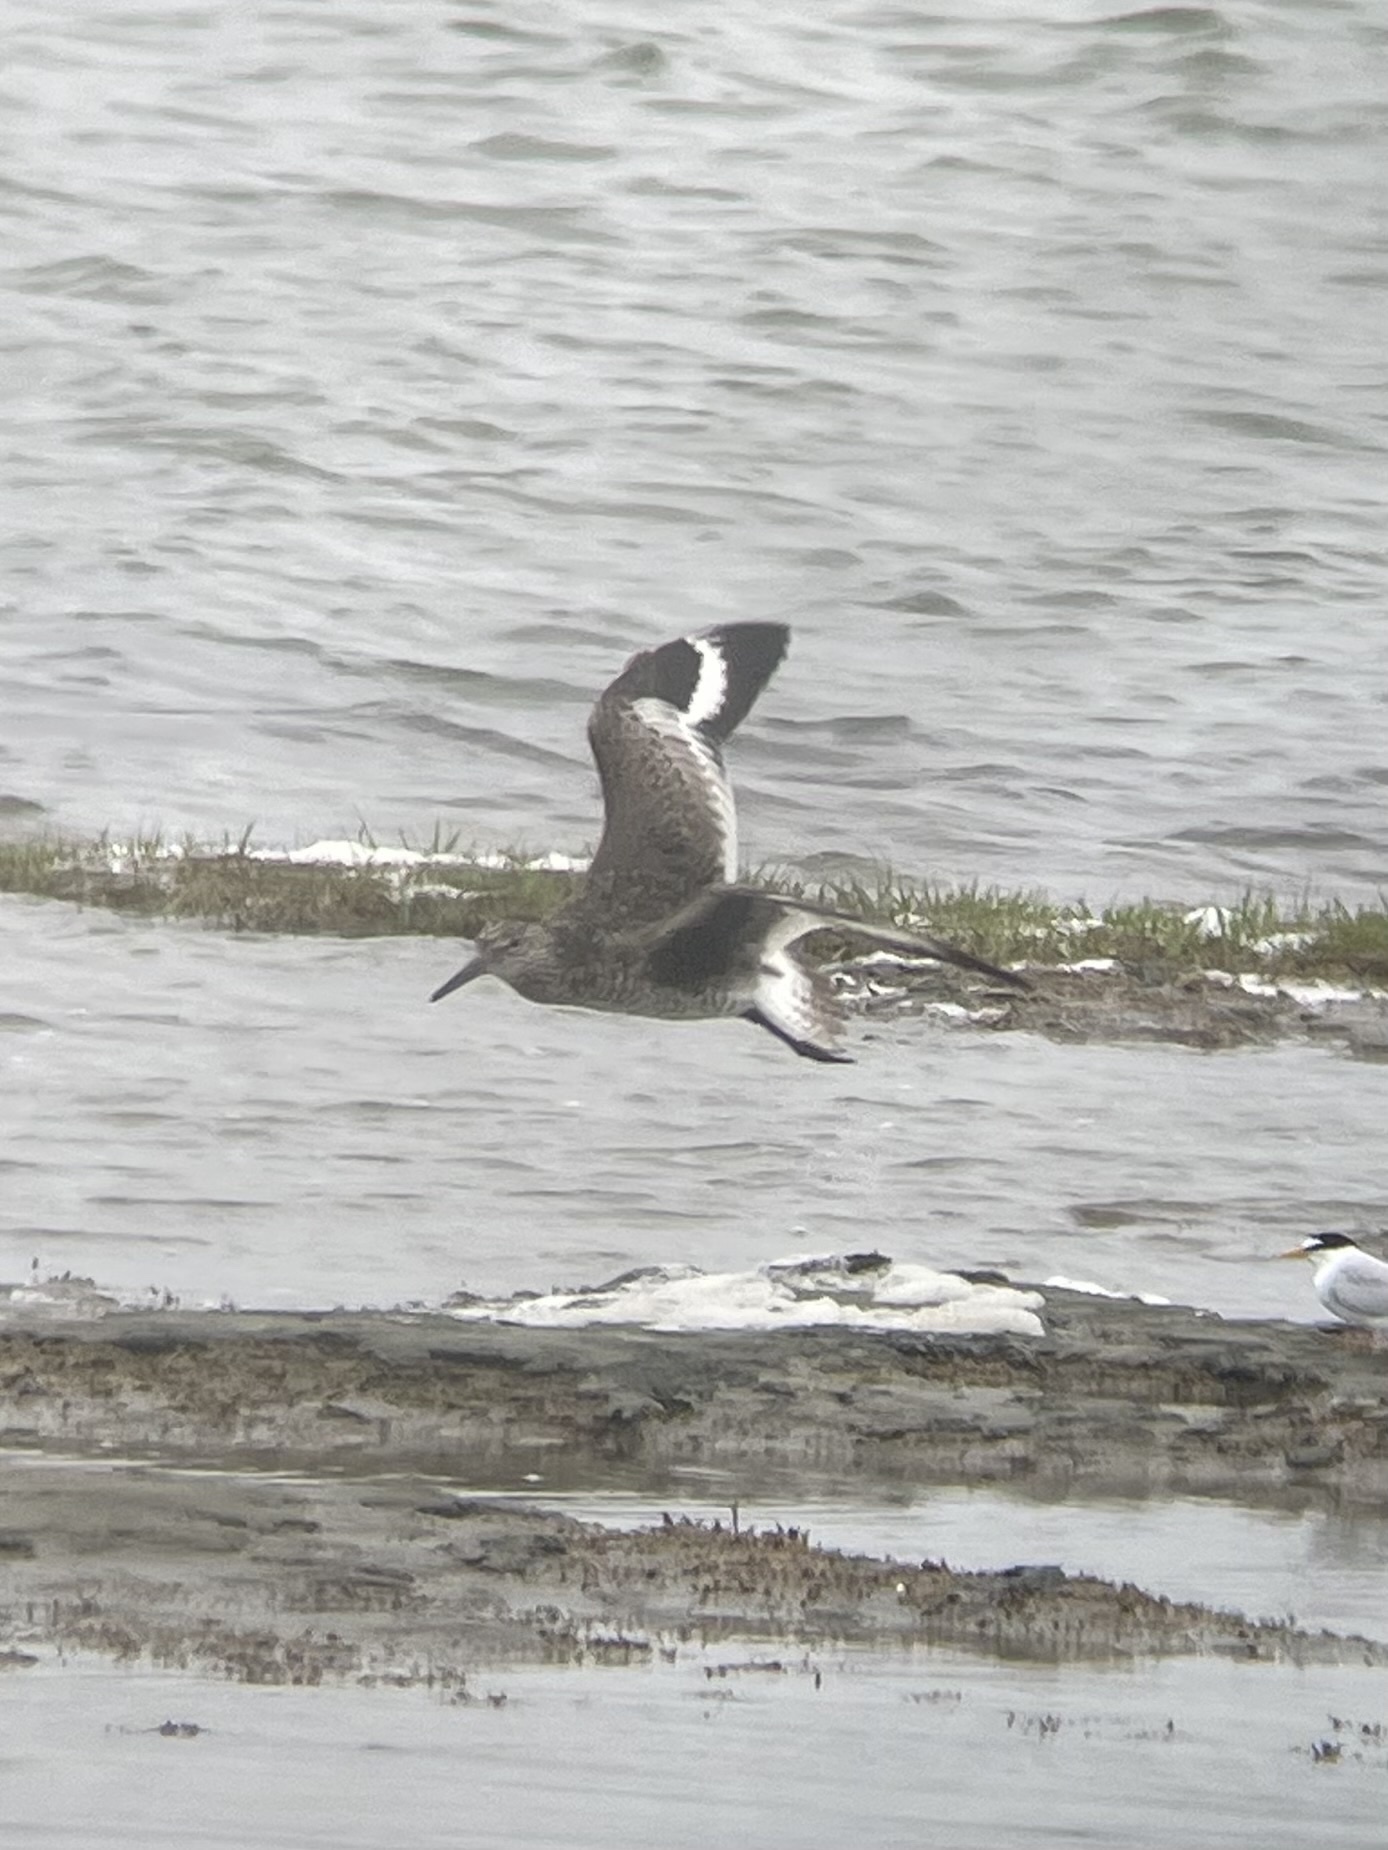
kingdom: Animalia
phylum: Chordata
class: Aves
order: Charadriiformes
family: Scolopacidae
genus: Tringa
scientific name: Tringa semipalmata
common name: Willet
